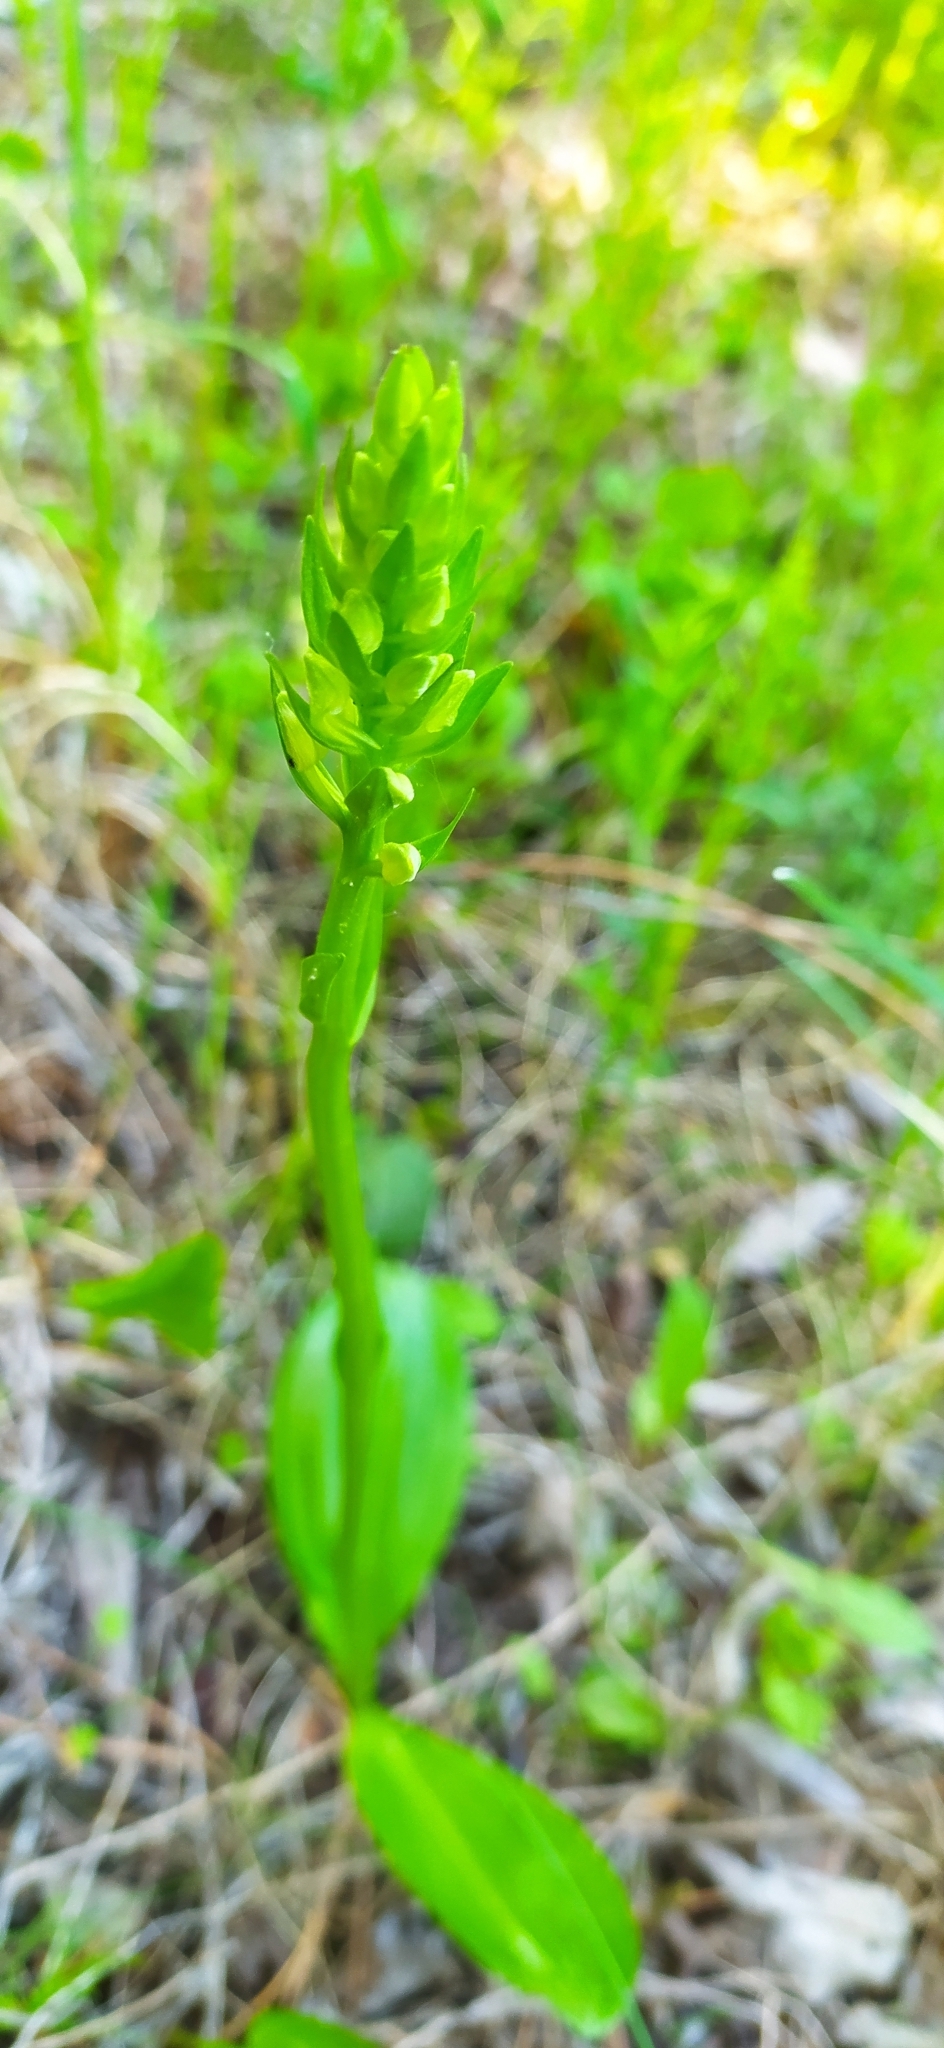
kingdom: Plantae
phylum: Tracheophyta
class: Liliopsida
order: Asparagales
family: Orchidaceae
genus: Platanthera
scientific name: Platanthera bifolia
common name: Lesser butterfly-orchid
